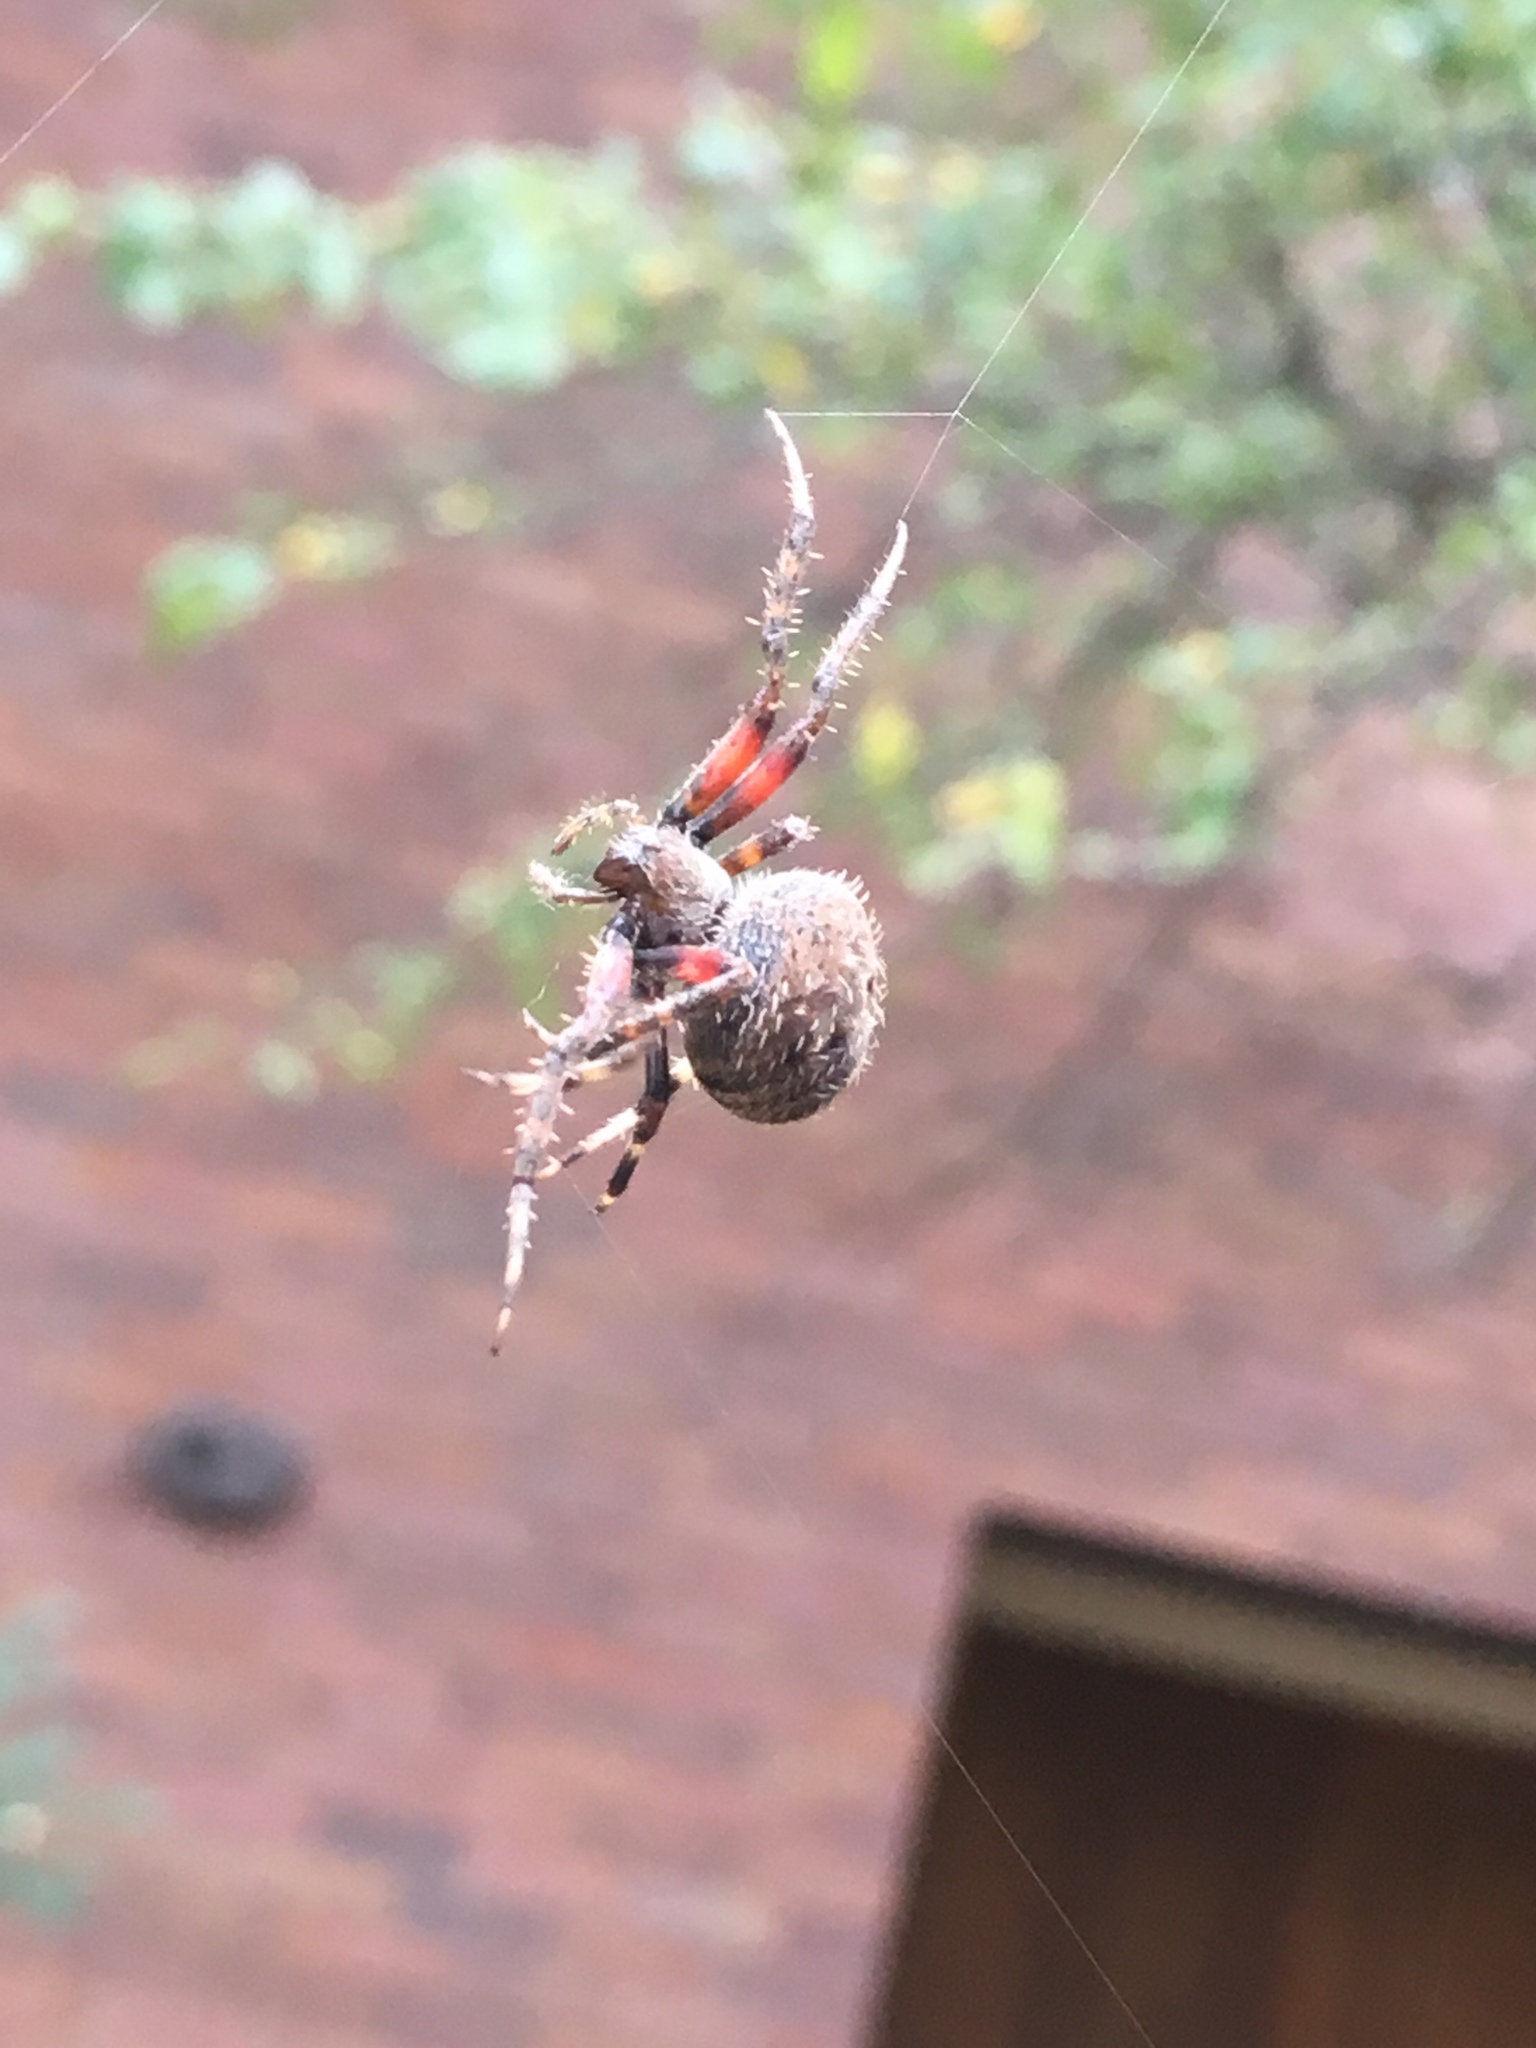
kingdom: Animalia
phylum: Arthropoda
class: Arachnida
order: Araneae
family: Araneidae
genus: Neoscona
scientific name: Neoscona crucifera
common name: Spotted orbweaver
